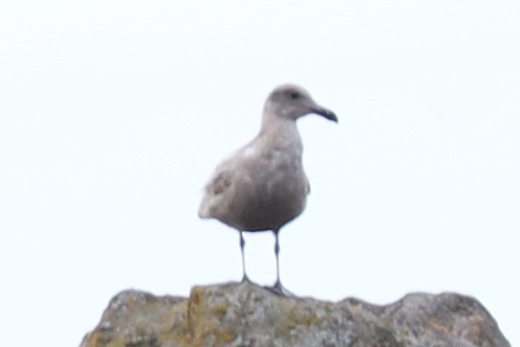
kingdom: Animalia
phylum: Chordata
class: Aves
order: Charadriiformes
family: Laridae
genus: Larus
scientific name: Larus
